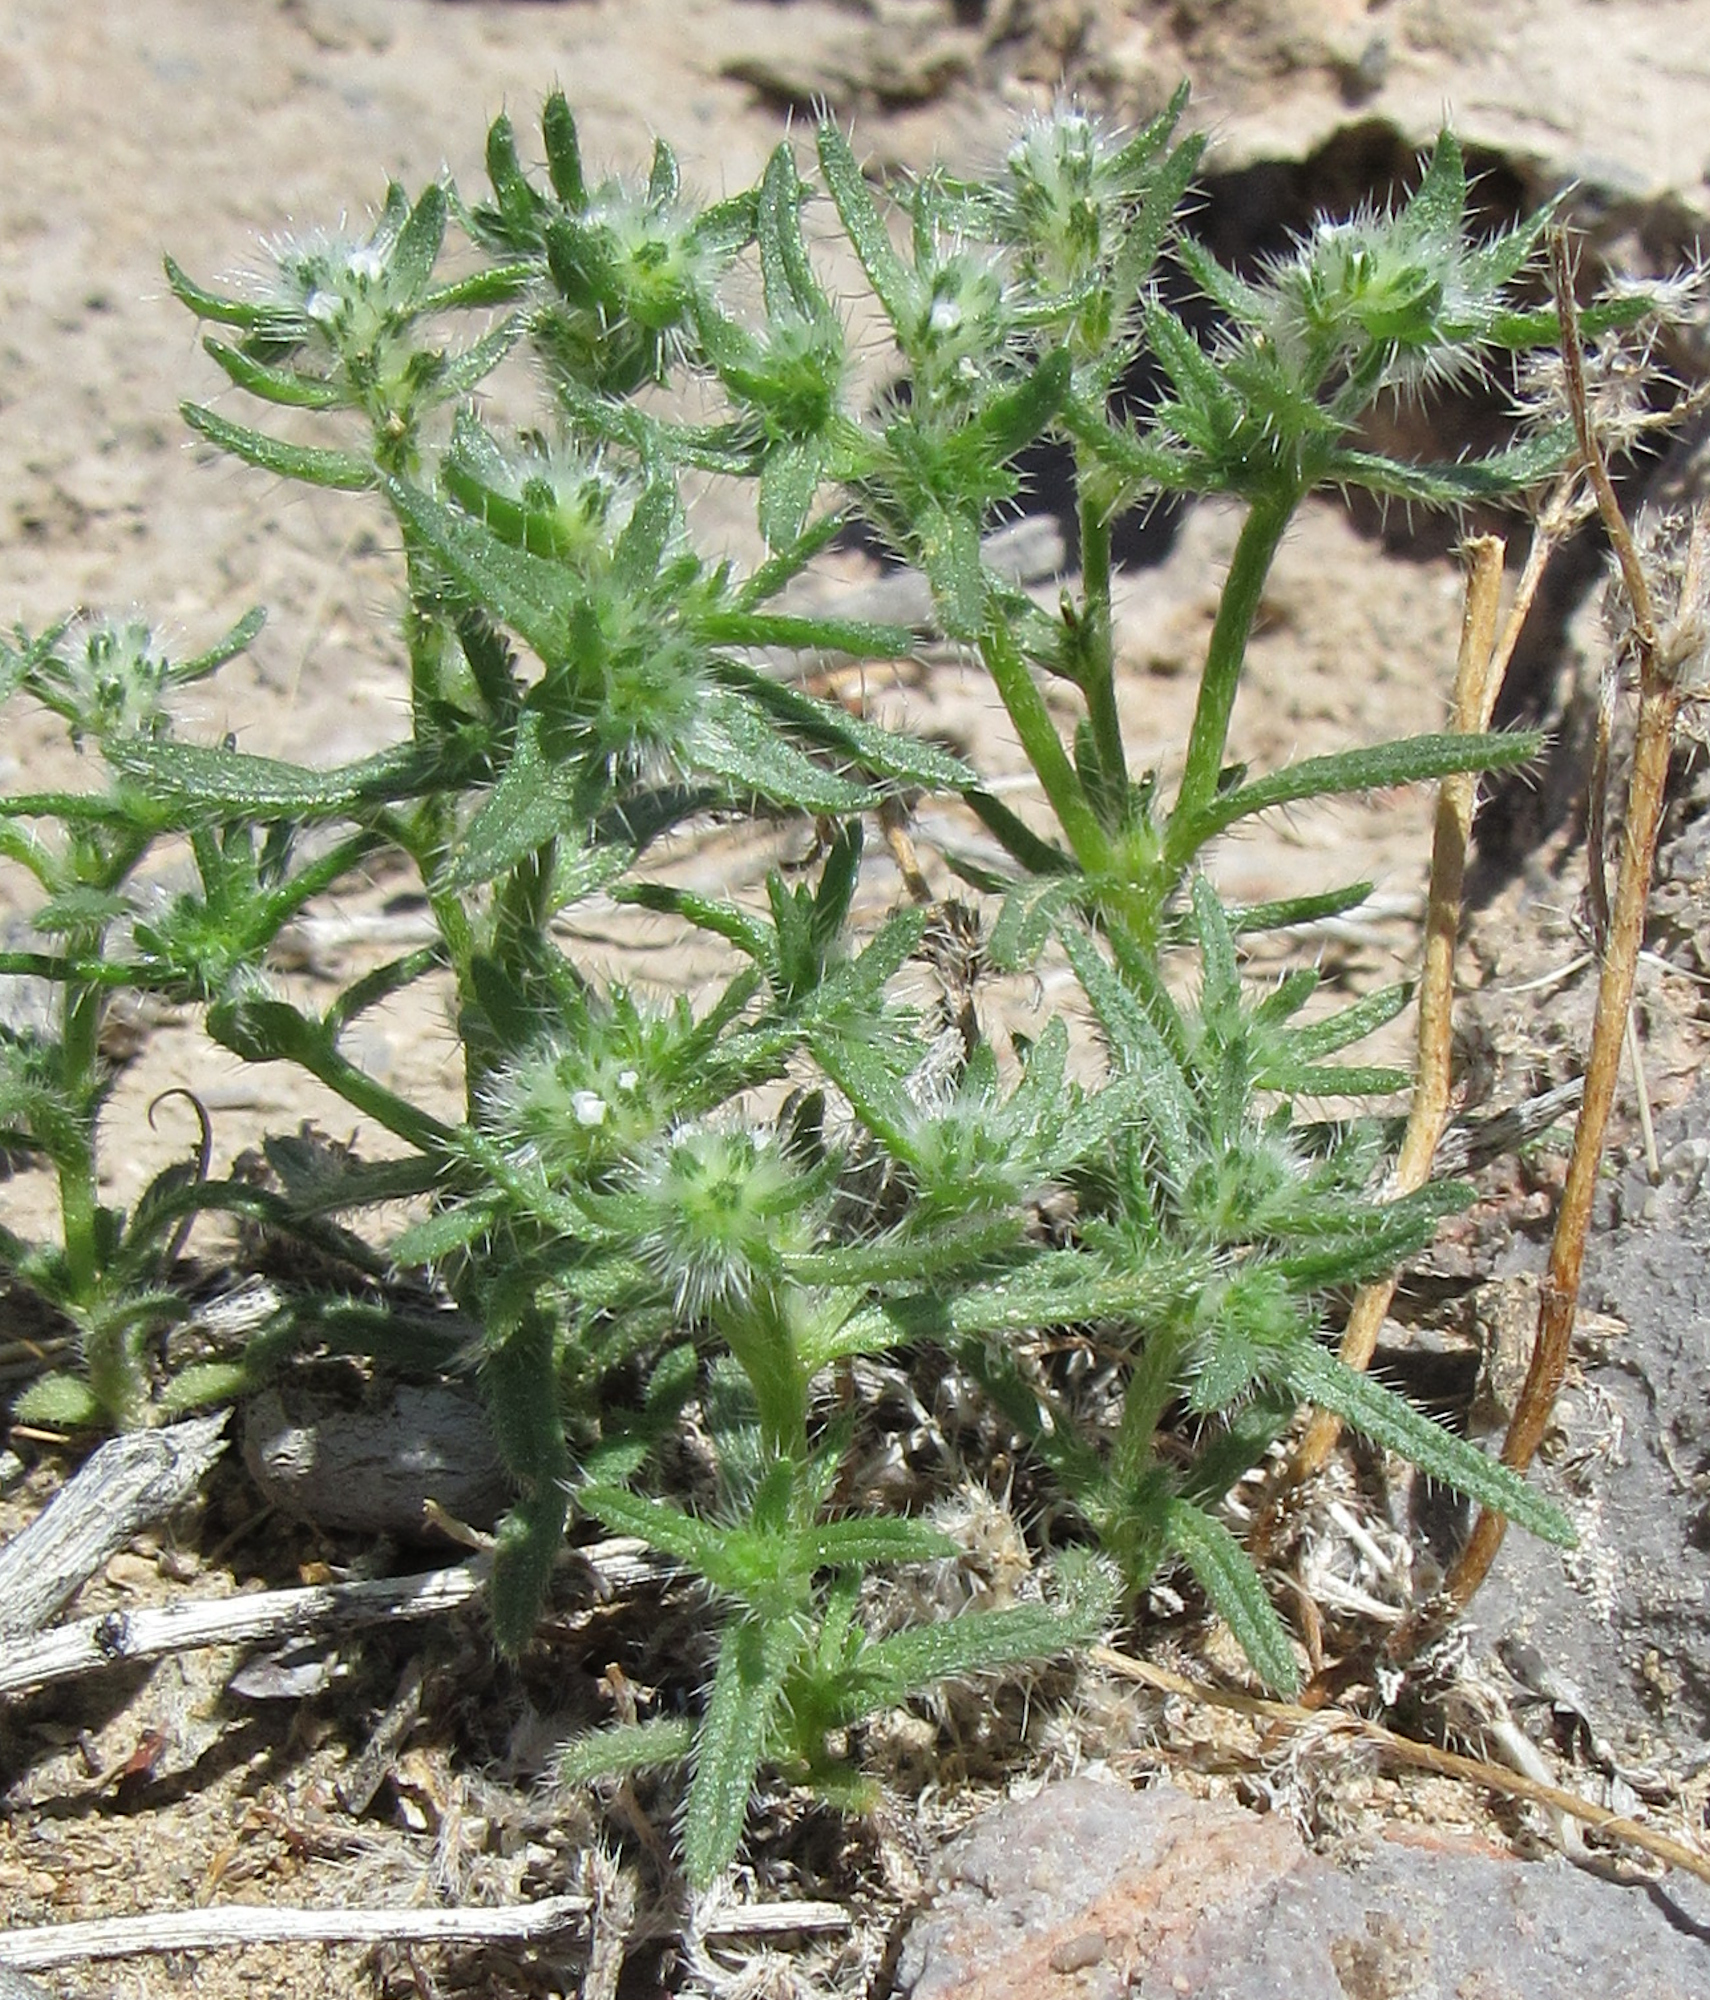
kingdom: Plantae
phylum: Tracheophyta
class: Magnoliopsida
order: Boraginales
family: Boraginaceae
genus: Cryptantha
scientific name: Cryptantha maritima
